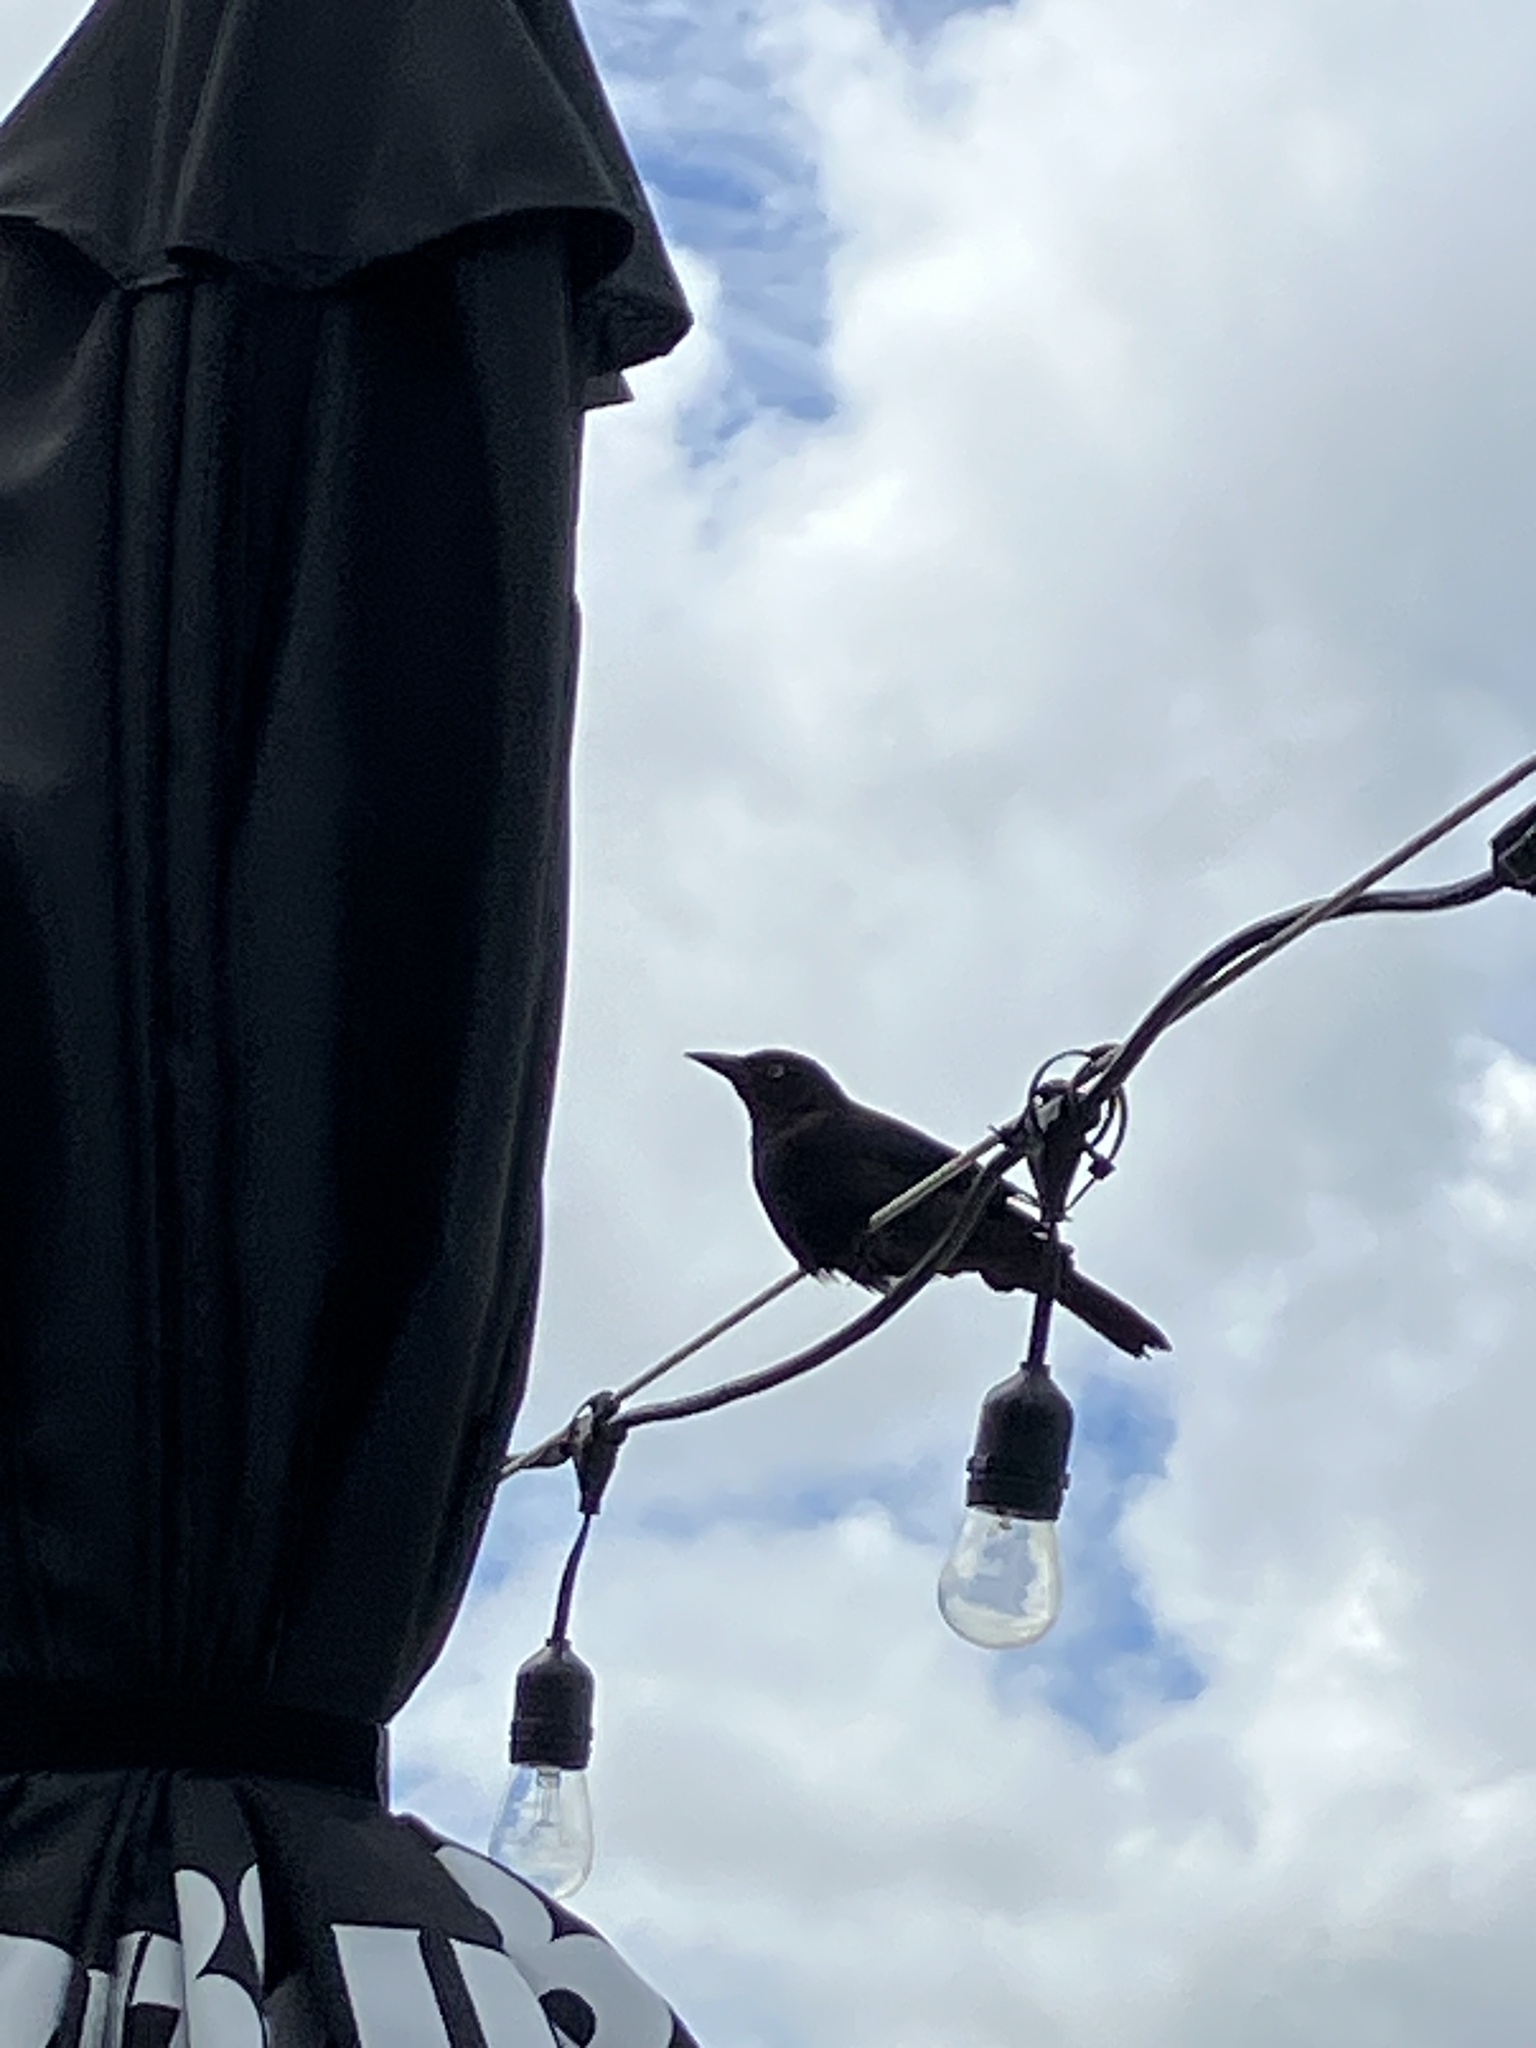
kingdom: Animalia
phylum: Chordata
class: Aves
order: Passeriformes
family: Icteridae
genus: Quiscalus
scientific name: Quiscalus quiscula
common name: Common grackle
